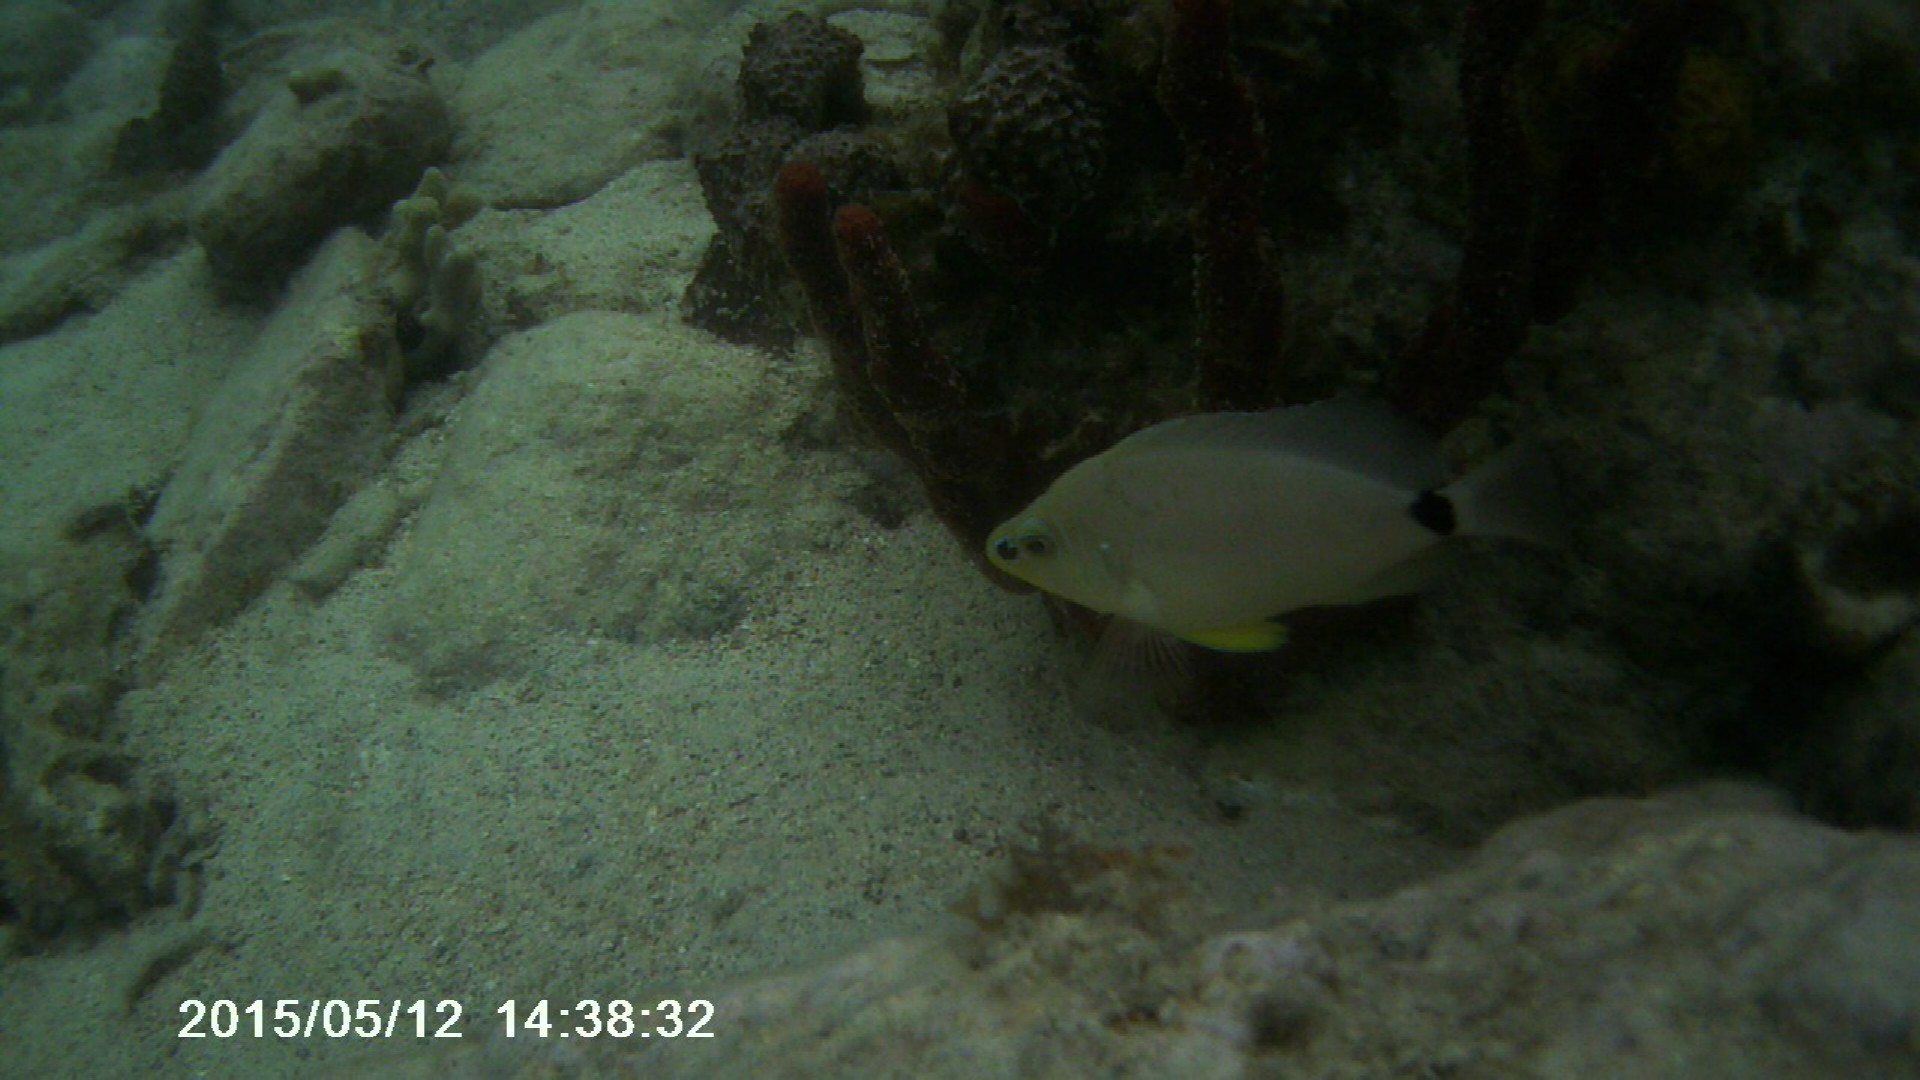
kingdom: Animalia
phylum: Chordata
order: Perciformes
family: Serranidae
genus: Hypoplectrus
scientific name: Hypoplectrus unicolor
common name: Butter hamlet
